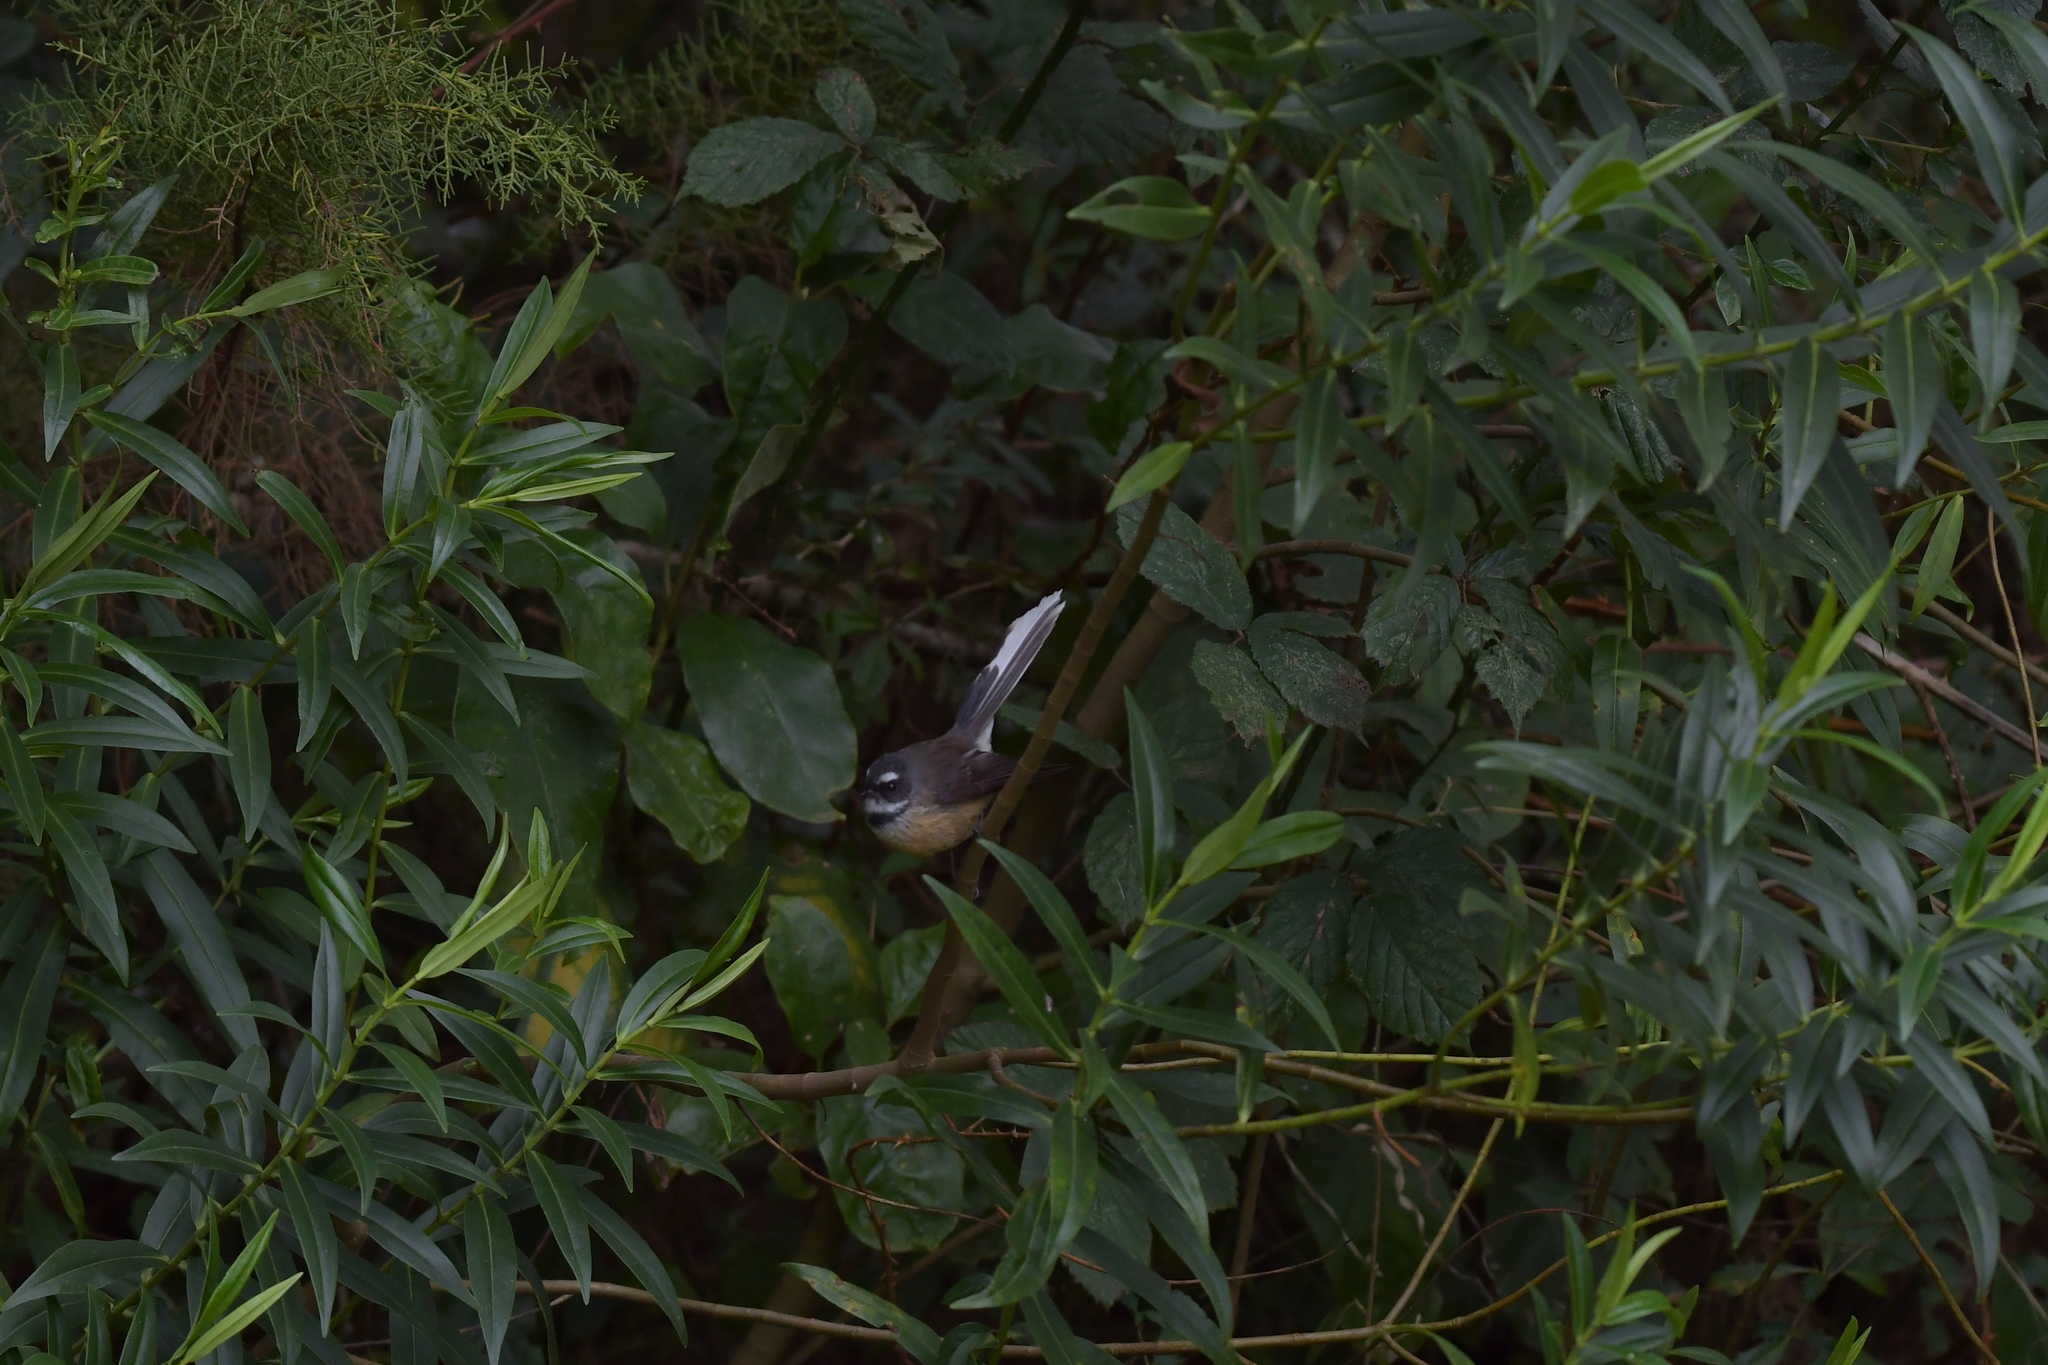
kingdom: Animalia
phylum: Chordata
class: Aves
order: Passeriformes
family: Rhipiduridae
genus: Rhipidura
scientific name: Rhipidura fuliginosa
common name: New zealand fantail
